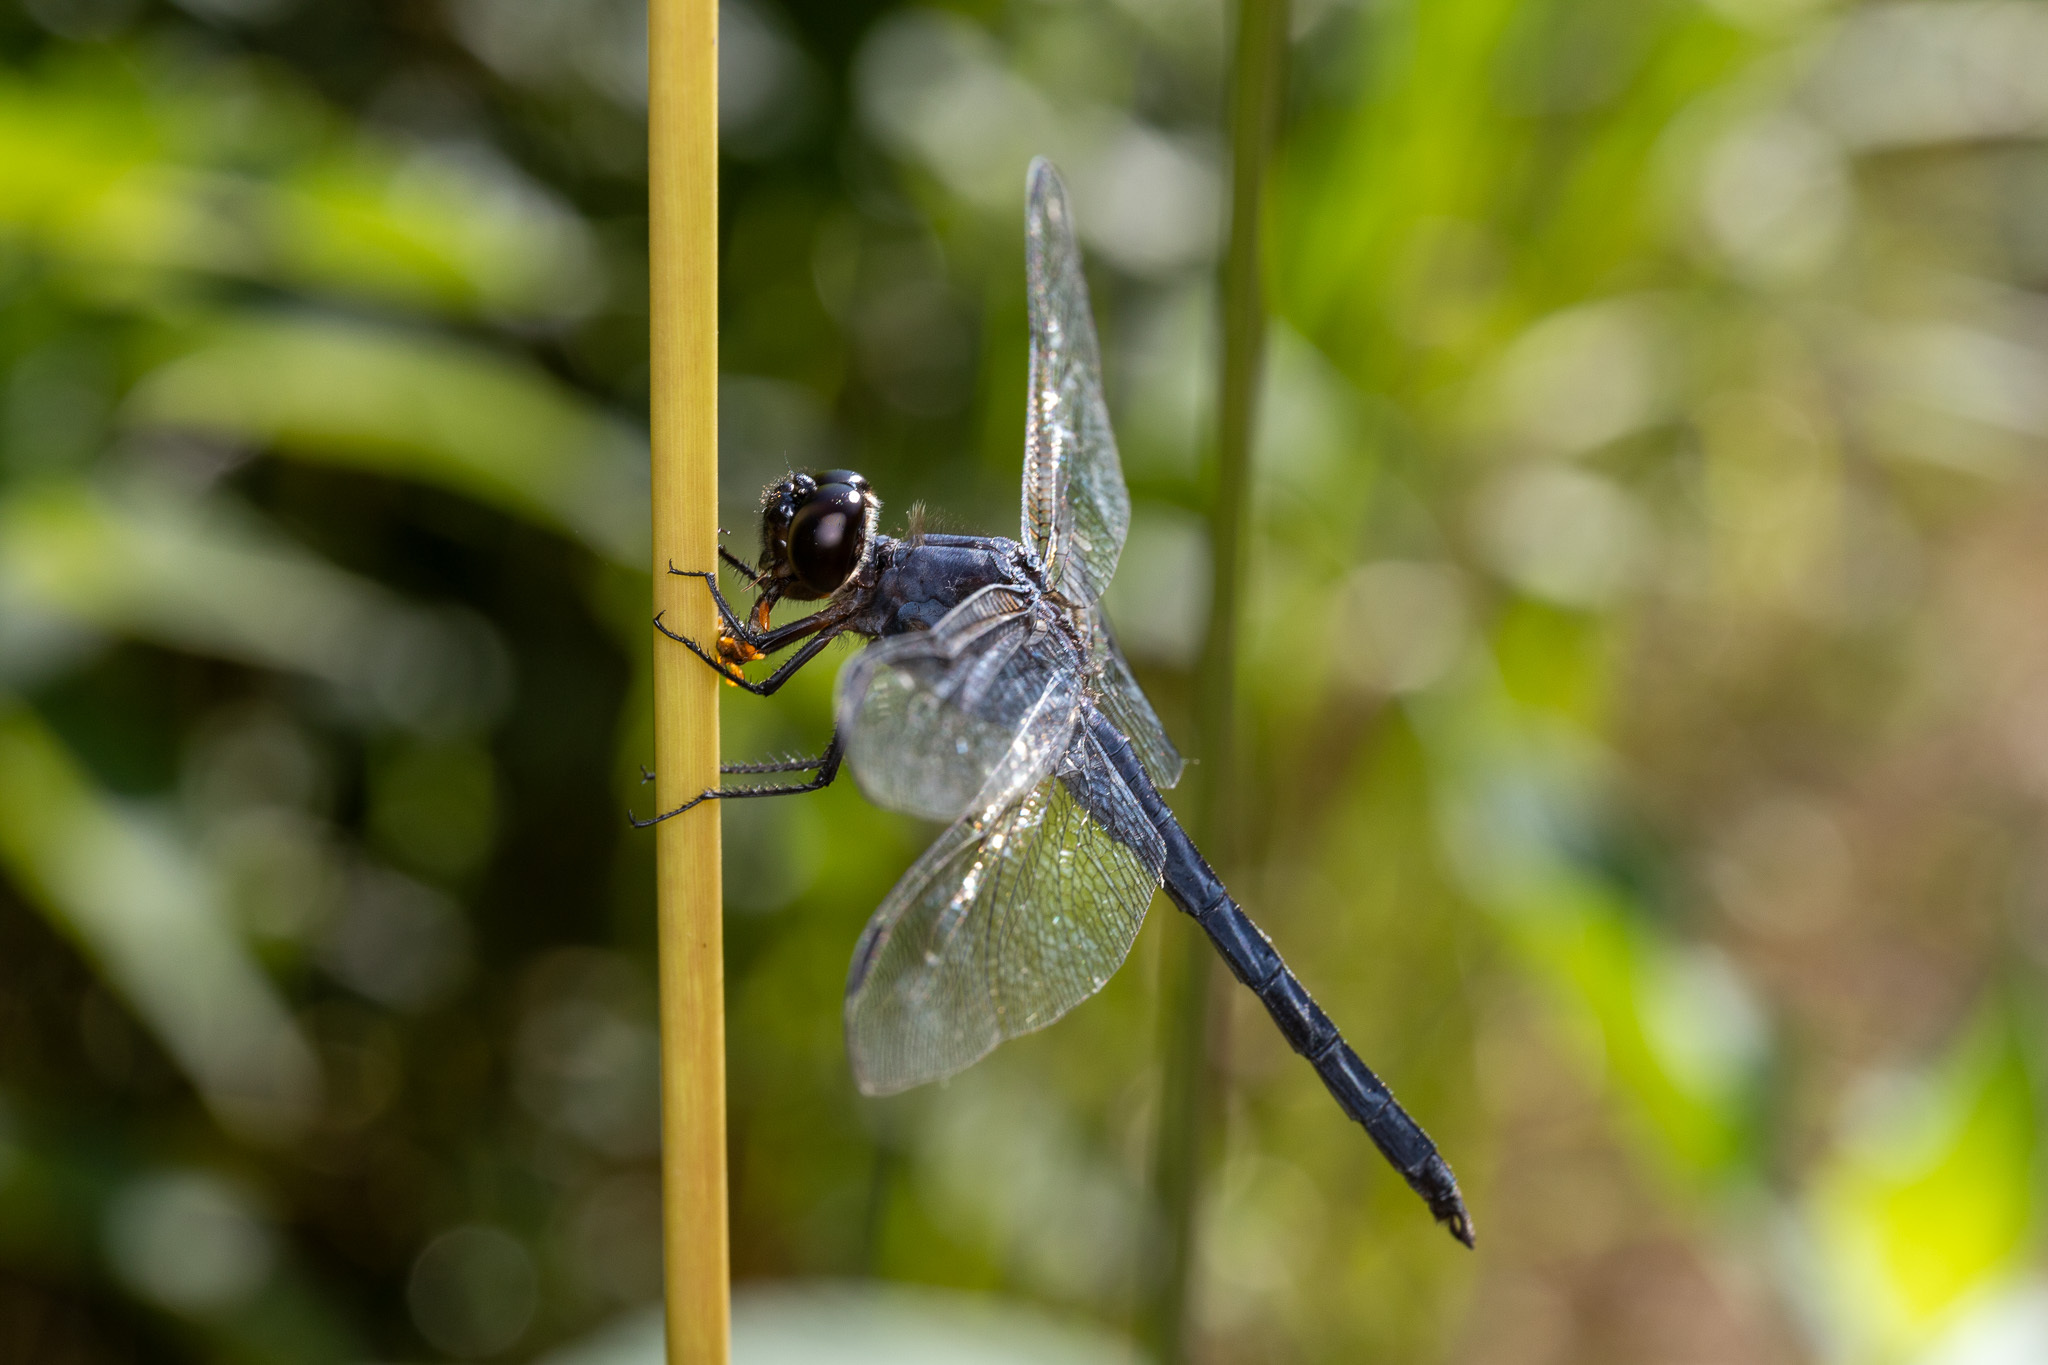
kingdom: Animalia
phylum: Arthropoda
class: Insecta
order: Odonata
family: Libellulidae
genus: Libellula
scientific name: Libellula incesta
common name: Slaty skimmer
